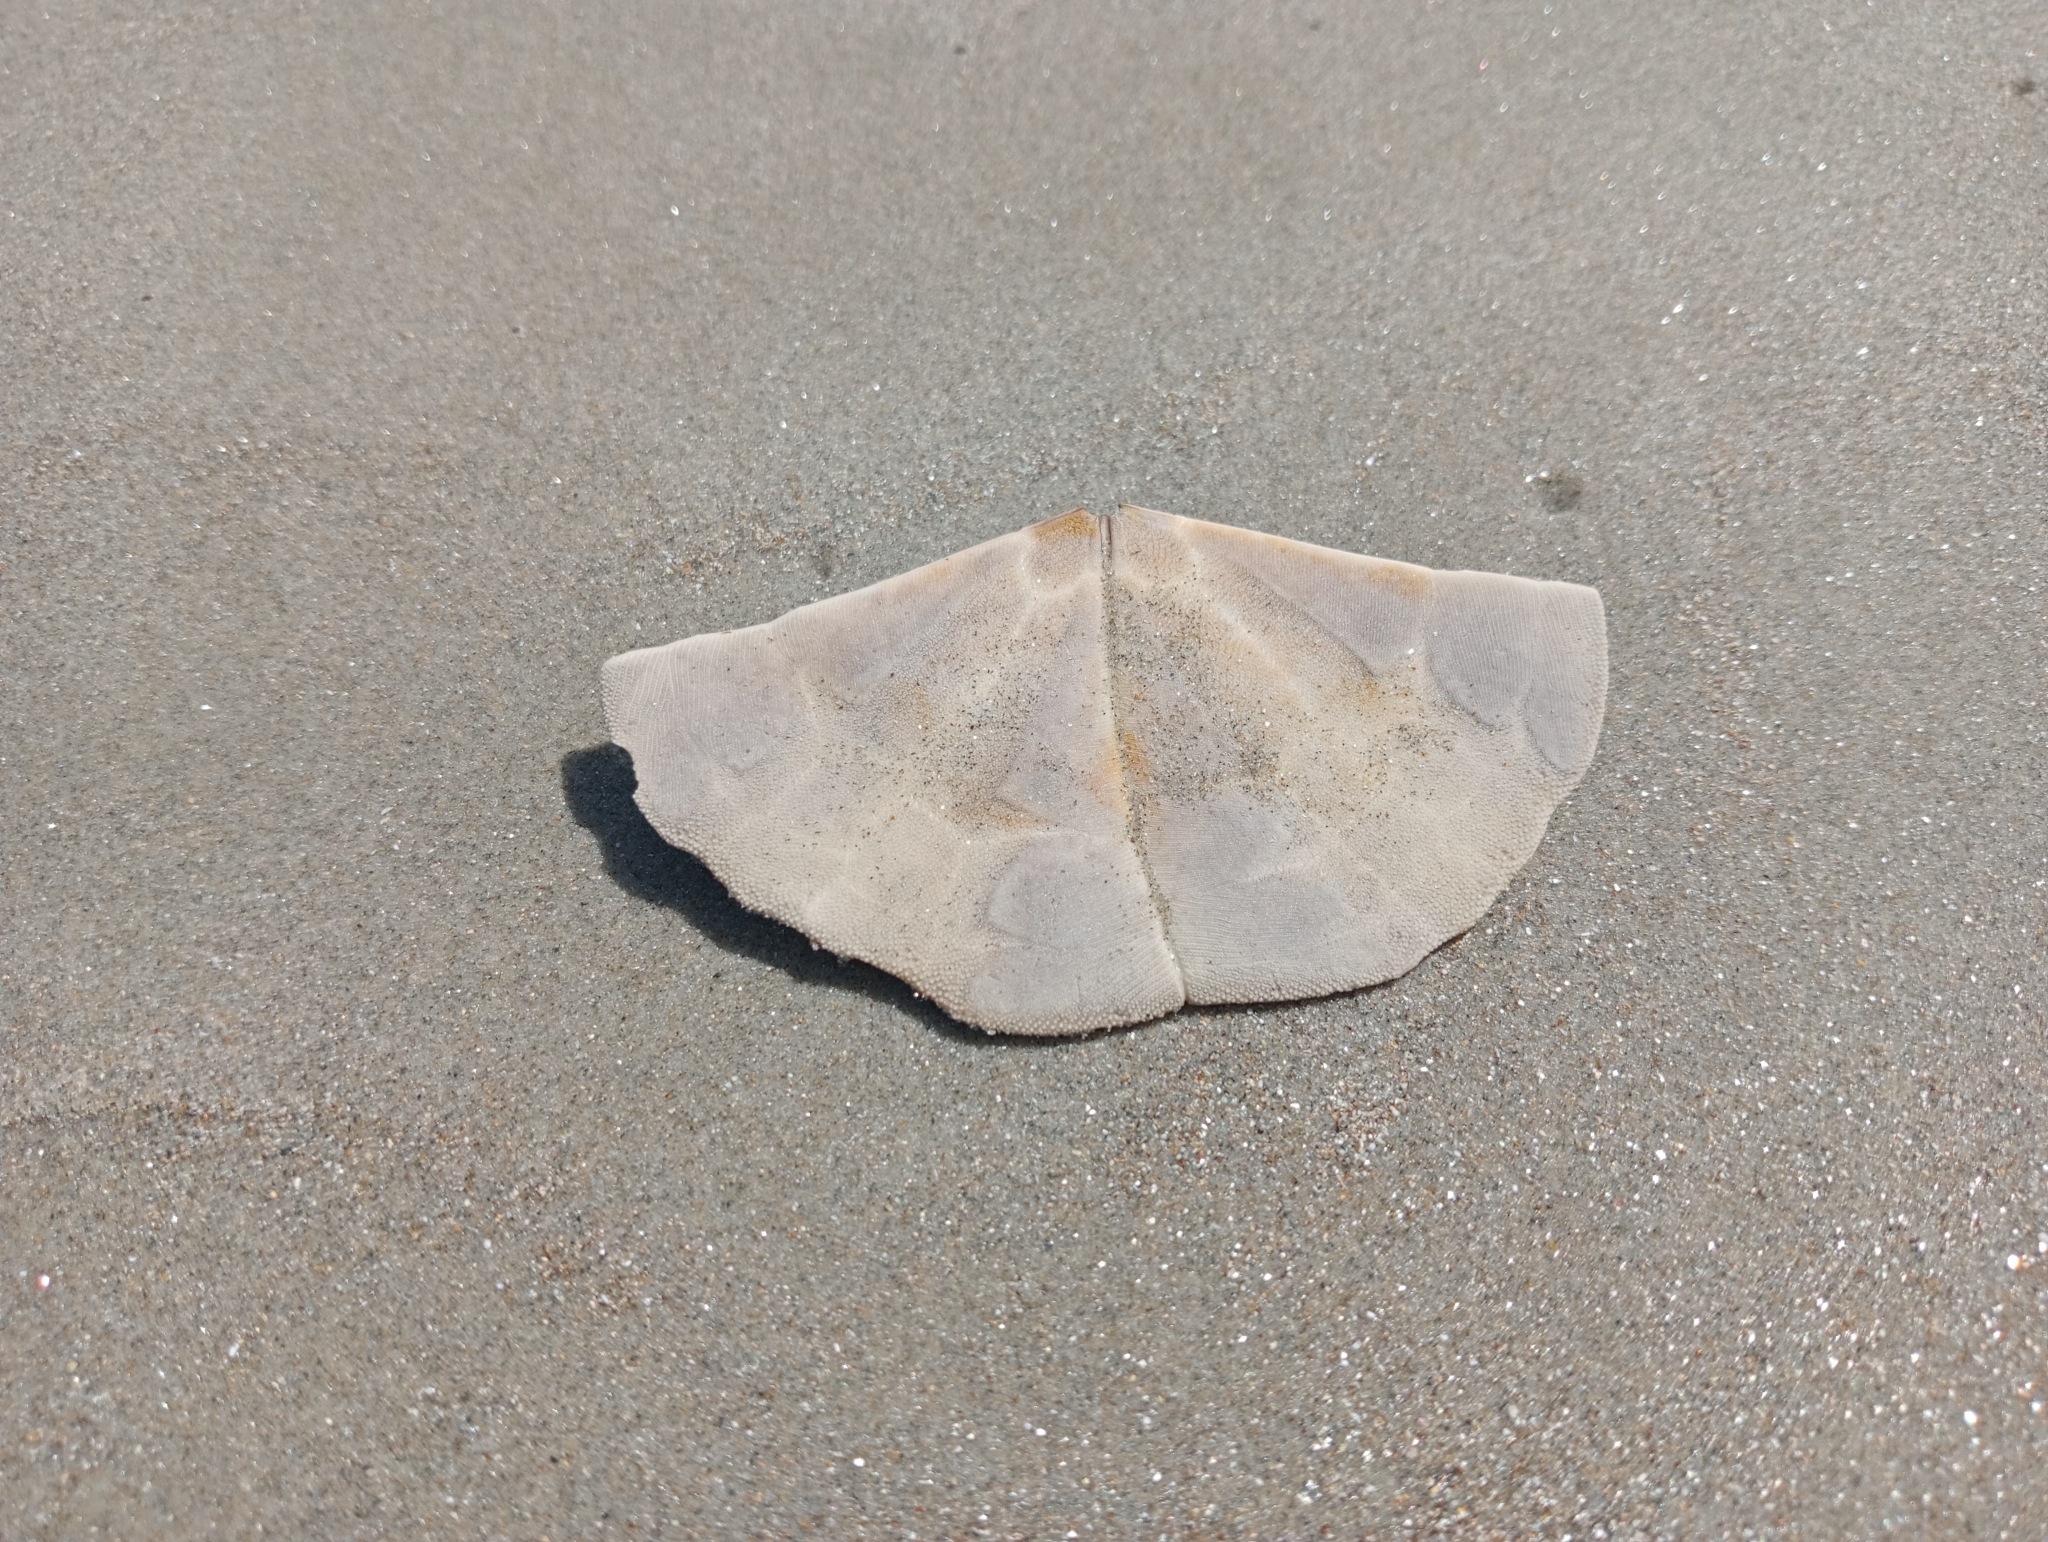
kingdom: Animalia
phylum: Echinodermata
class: Echinoidea
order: Clypeasteroida
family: Clypeasteridae
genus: Fellaster
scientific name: Fellaster zelandiae
